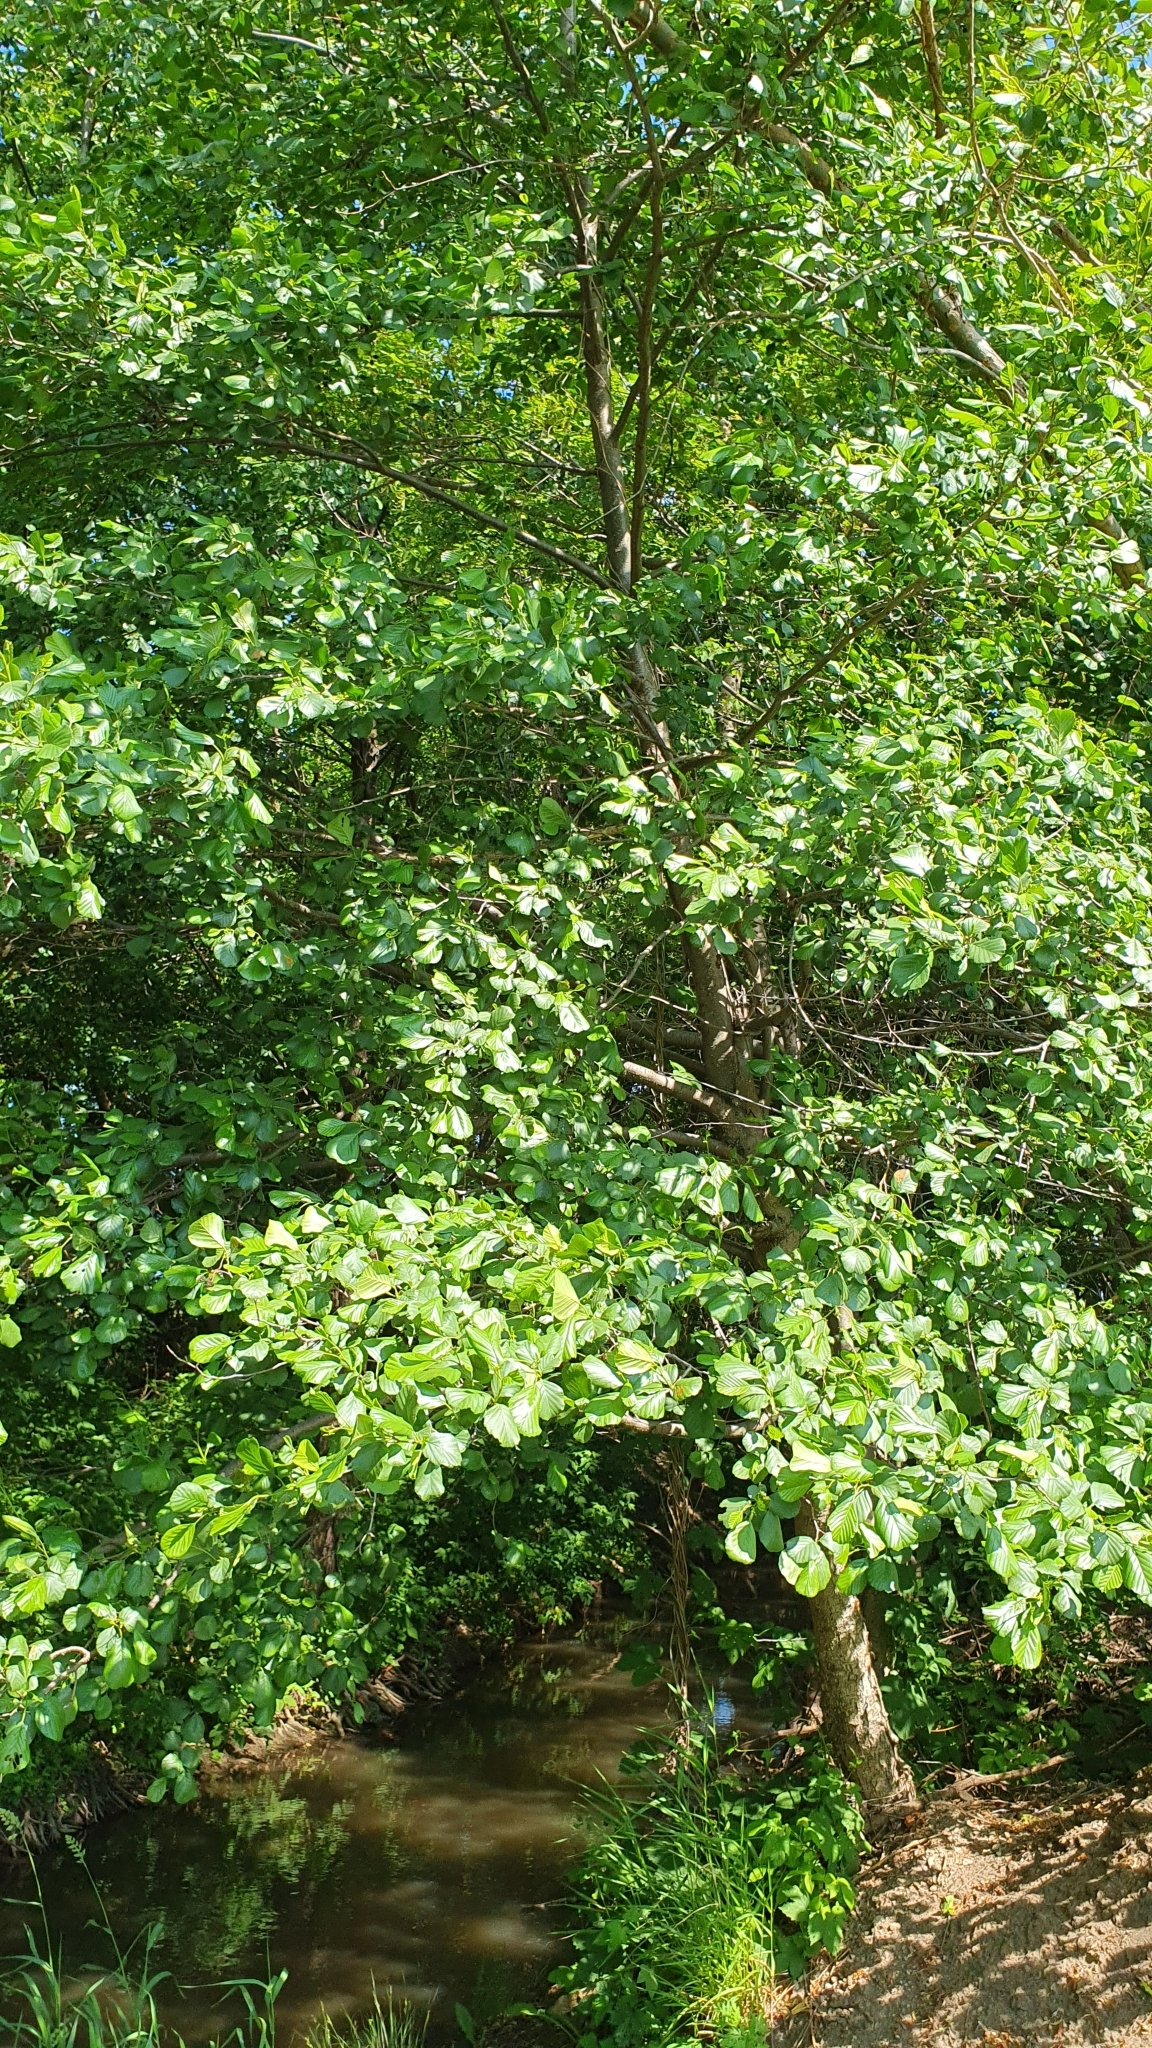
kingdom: Plantae
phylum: Tracheophyta
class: Magnoliopsida
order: Fagales
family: Betulaceae
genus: Alnus
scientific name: Alnus glutinosa
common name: Black alder
